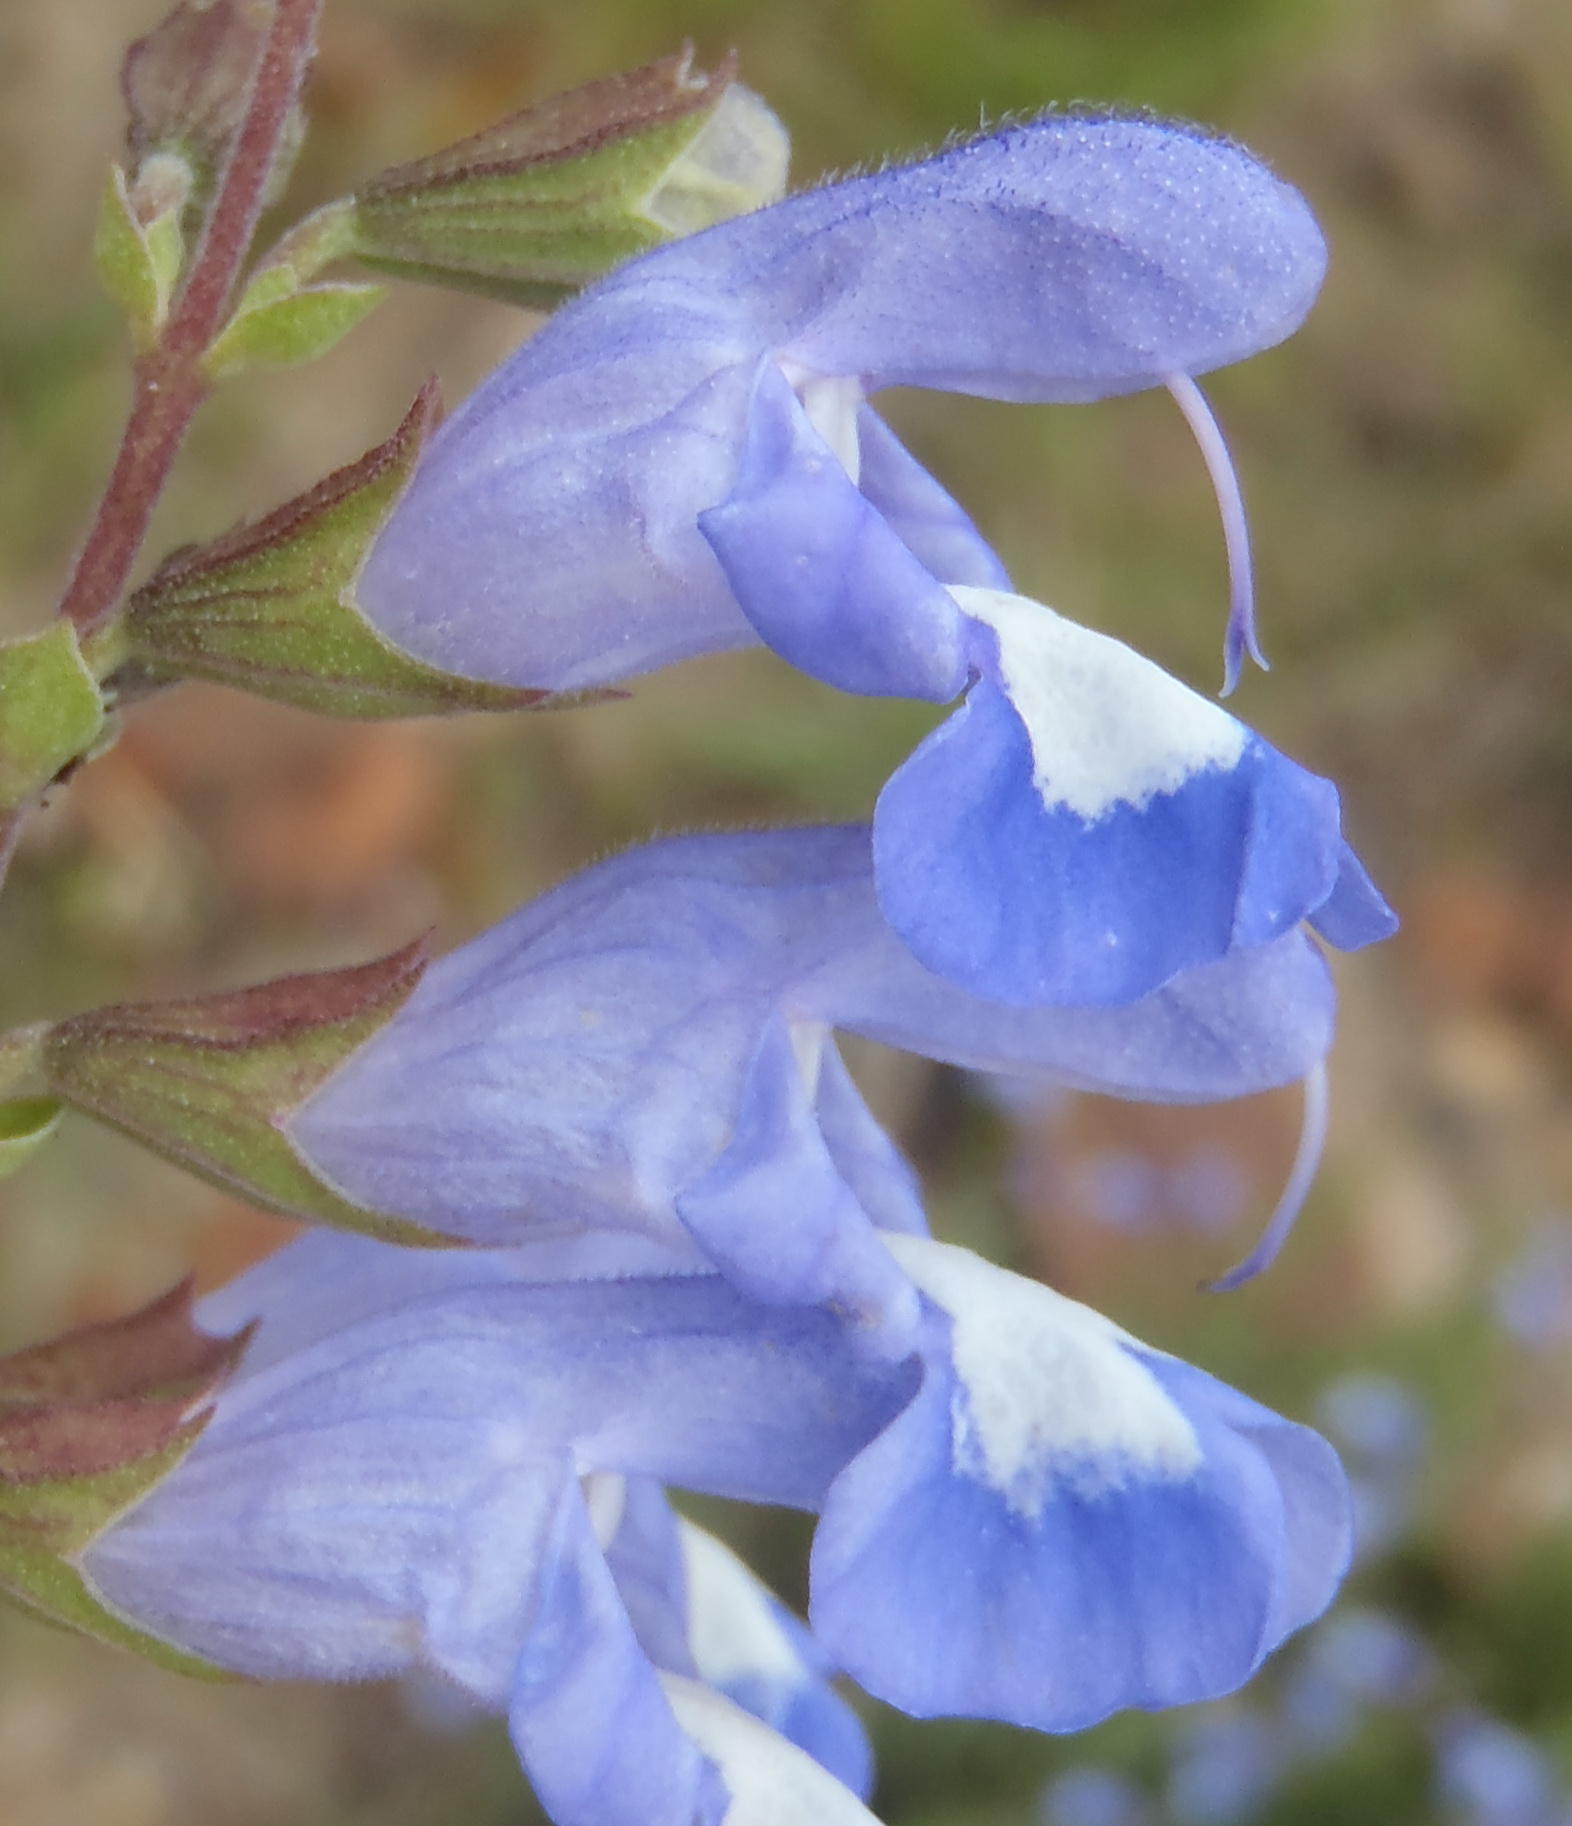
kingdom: Plantae
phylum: Tracheophyta
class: Magnoliopsida
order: Lamiales
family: Lamiaceae
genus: Salvia
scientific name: Salvia muirii
